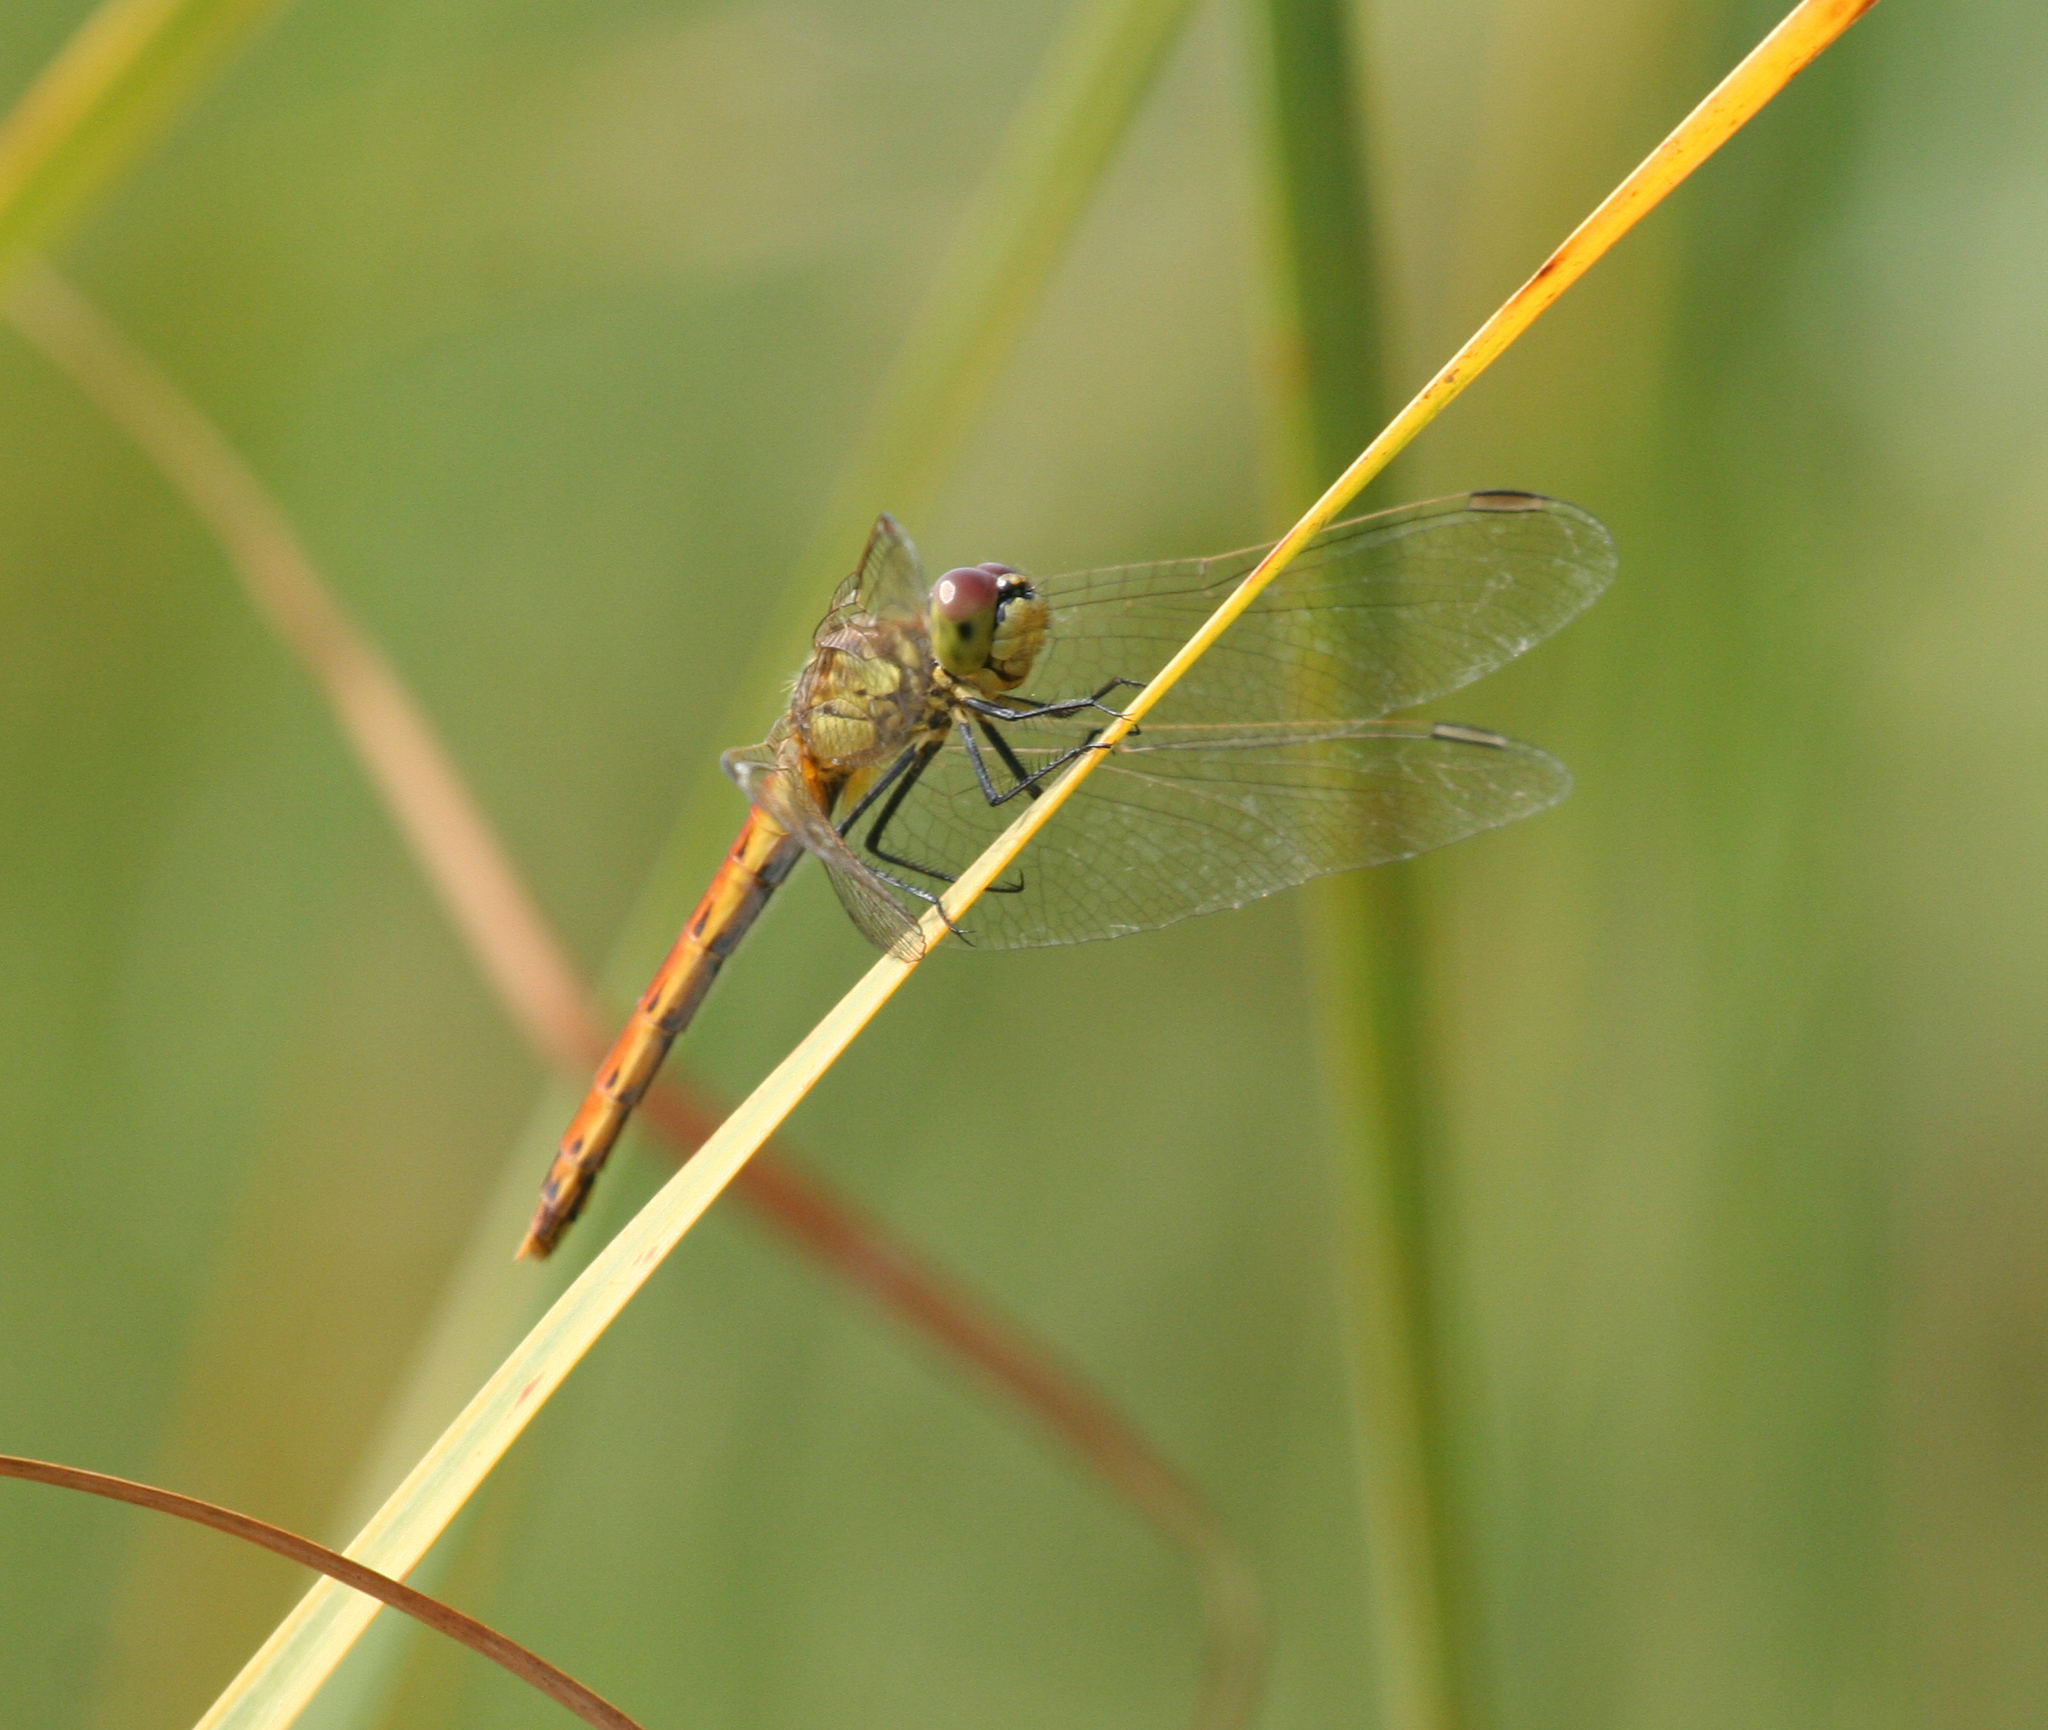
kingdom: Animalia
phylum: Arthropoda
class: Insecta
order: Odonata
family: Libellulidae
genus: Sympetrum
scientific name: Sympetrum depressiusculum
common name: Spotted darter
